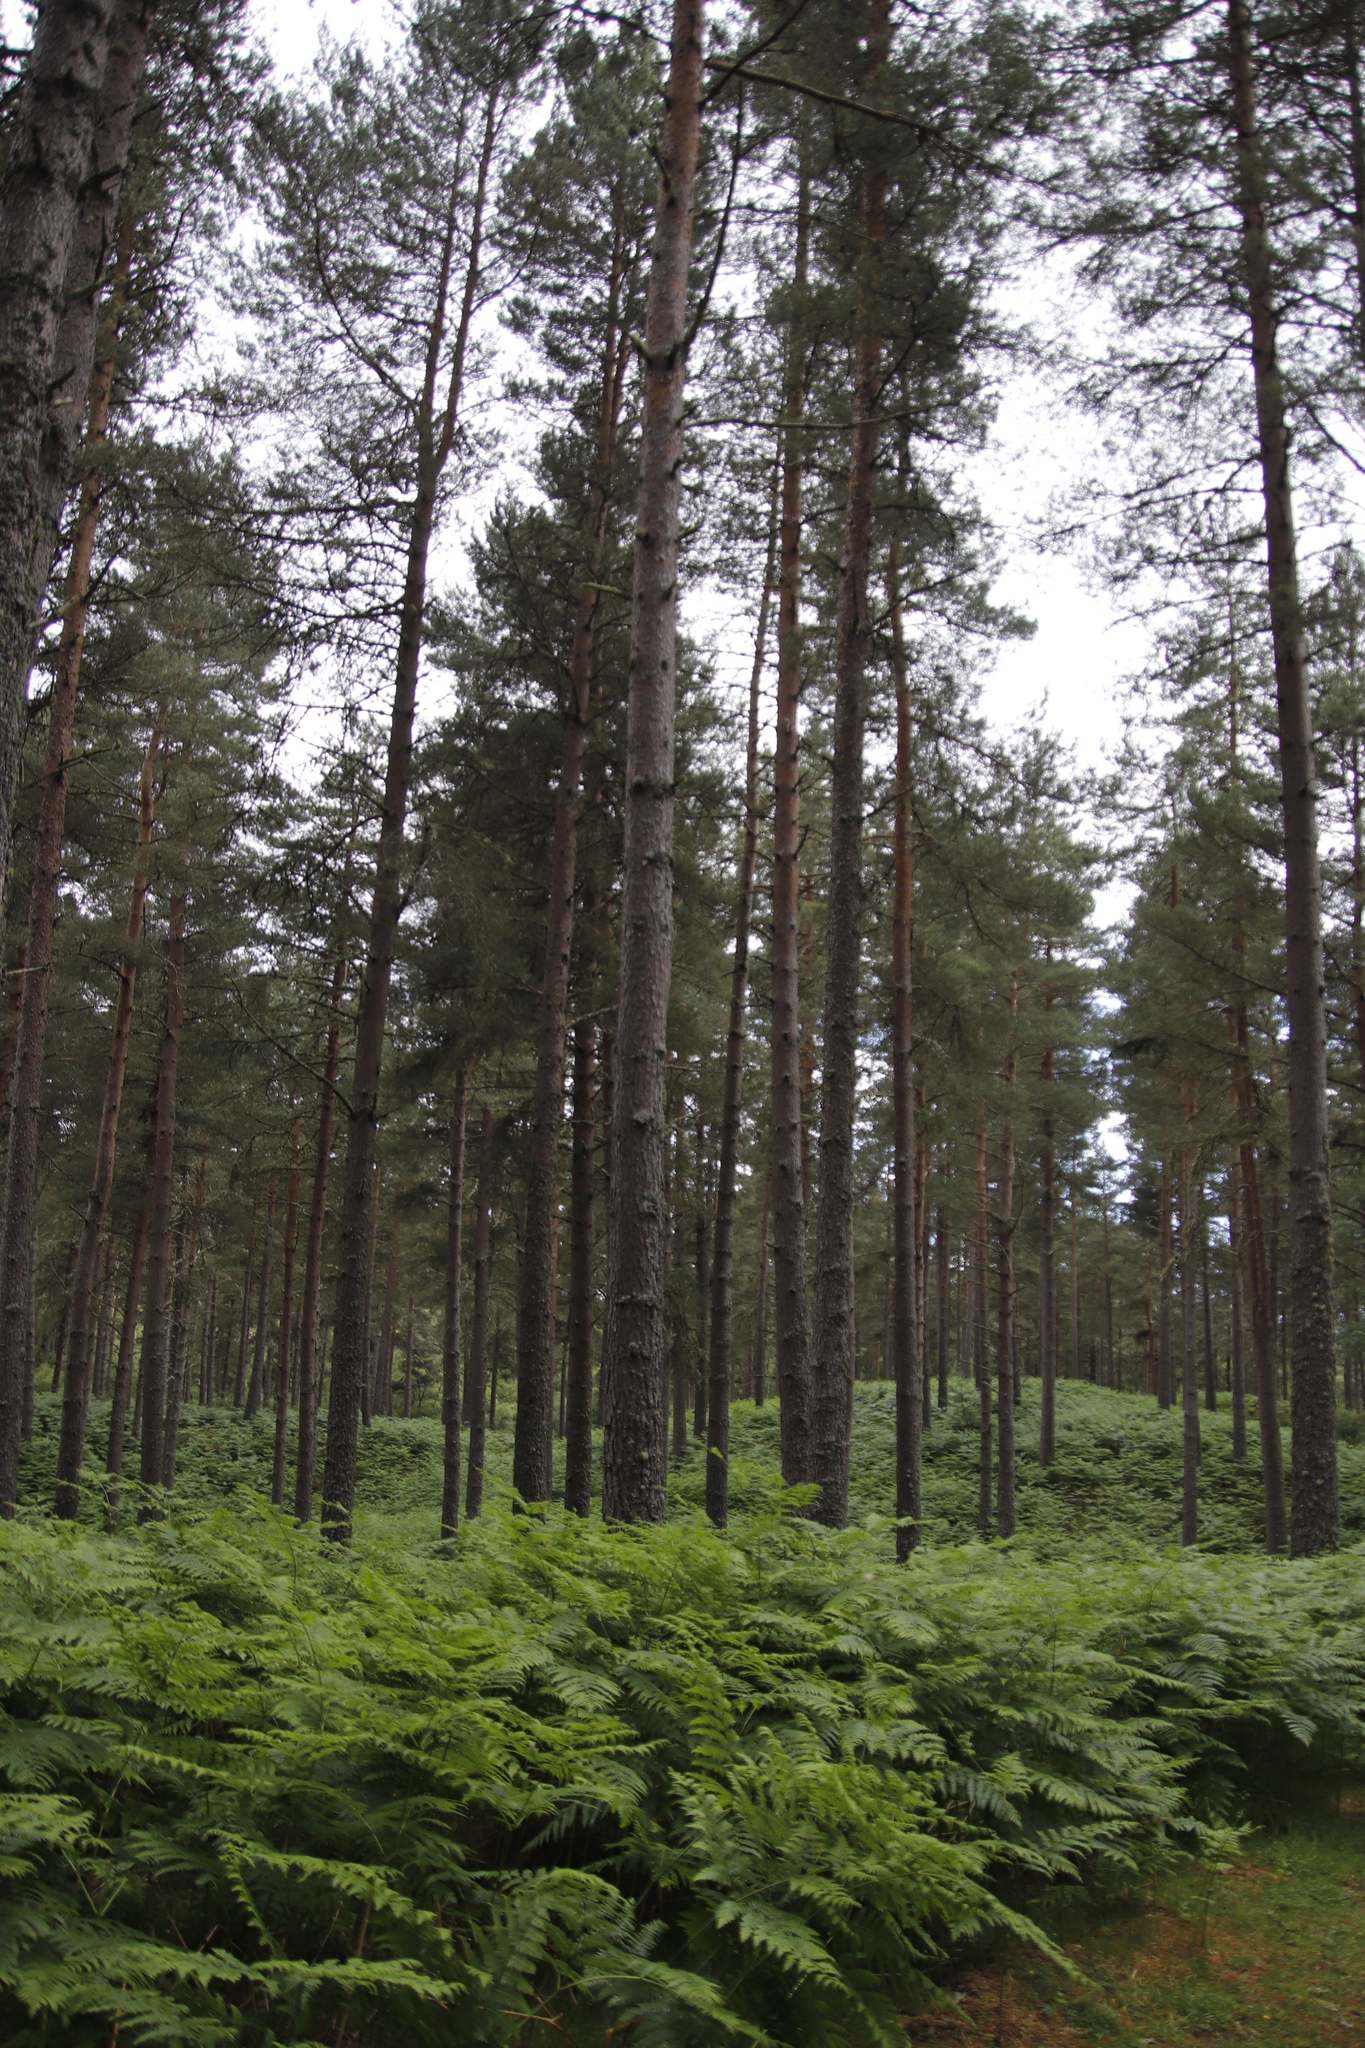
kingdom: Plantae
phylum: Tracheophyta
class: Polypodiopsida
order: Polypodiales
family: Dennstaedtiaceae
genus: Pteridium
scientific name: Pteridium aquilinum
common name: Bracken
